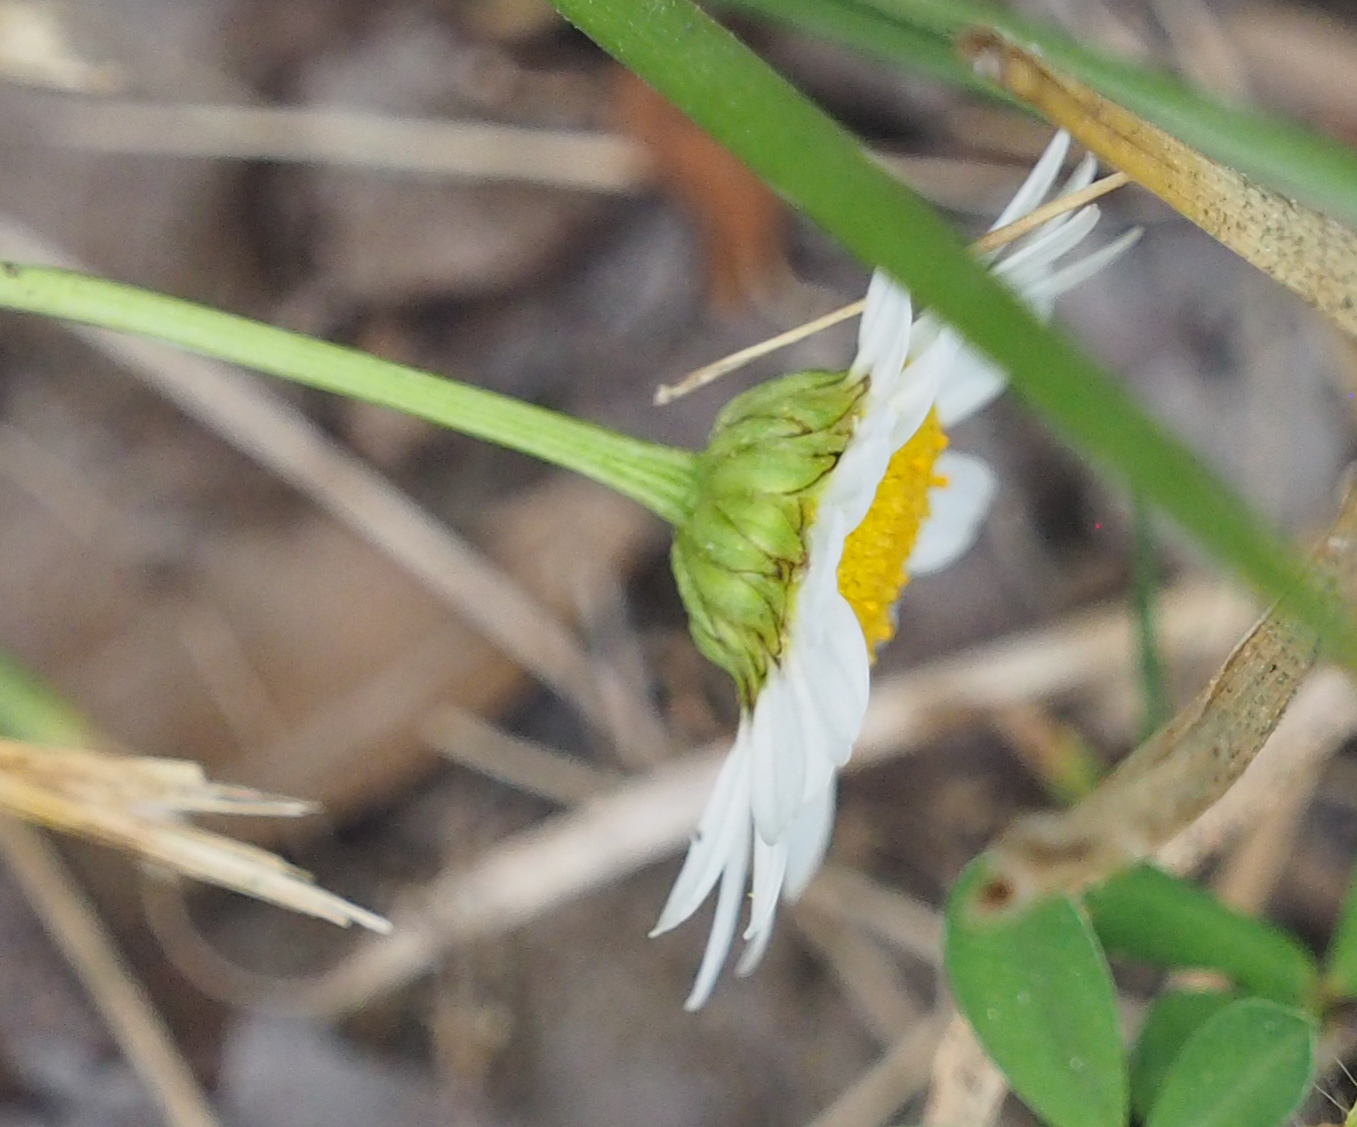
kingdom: Plantae
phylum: Tracheophyta
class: Magnoliopsida
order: Asterales
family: Asteraceae
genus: Leucanthemum
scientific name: Leucanthemum vulgare
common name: Oxeye daisy
